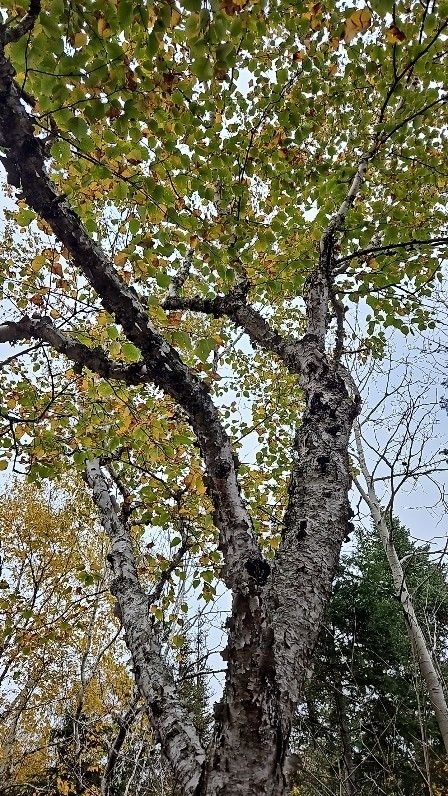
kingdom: Plantae
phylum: Tracheophyta
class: Magnoliopsida
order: Fagales
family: Betulaceae
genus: Betula
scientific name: Betula papyrifera
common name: Paper birch
